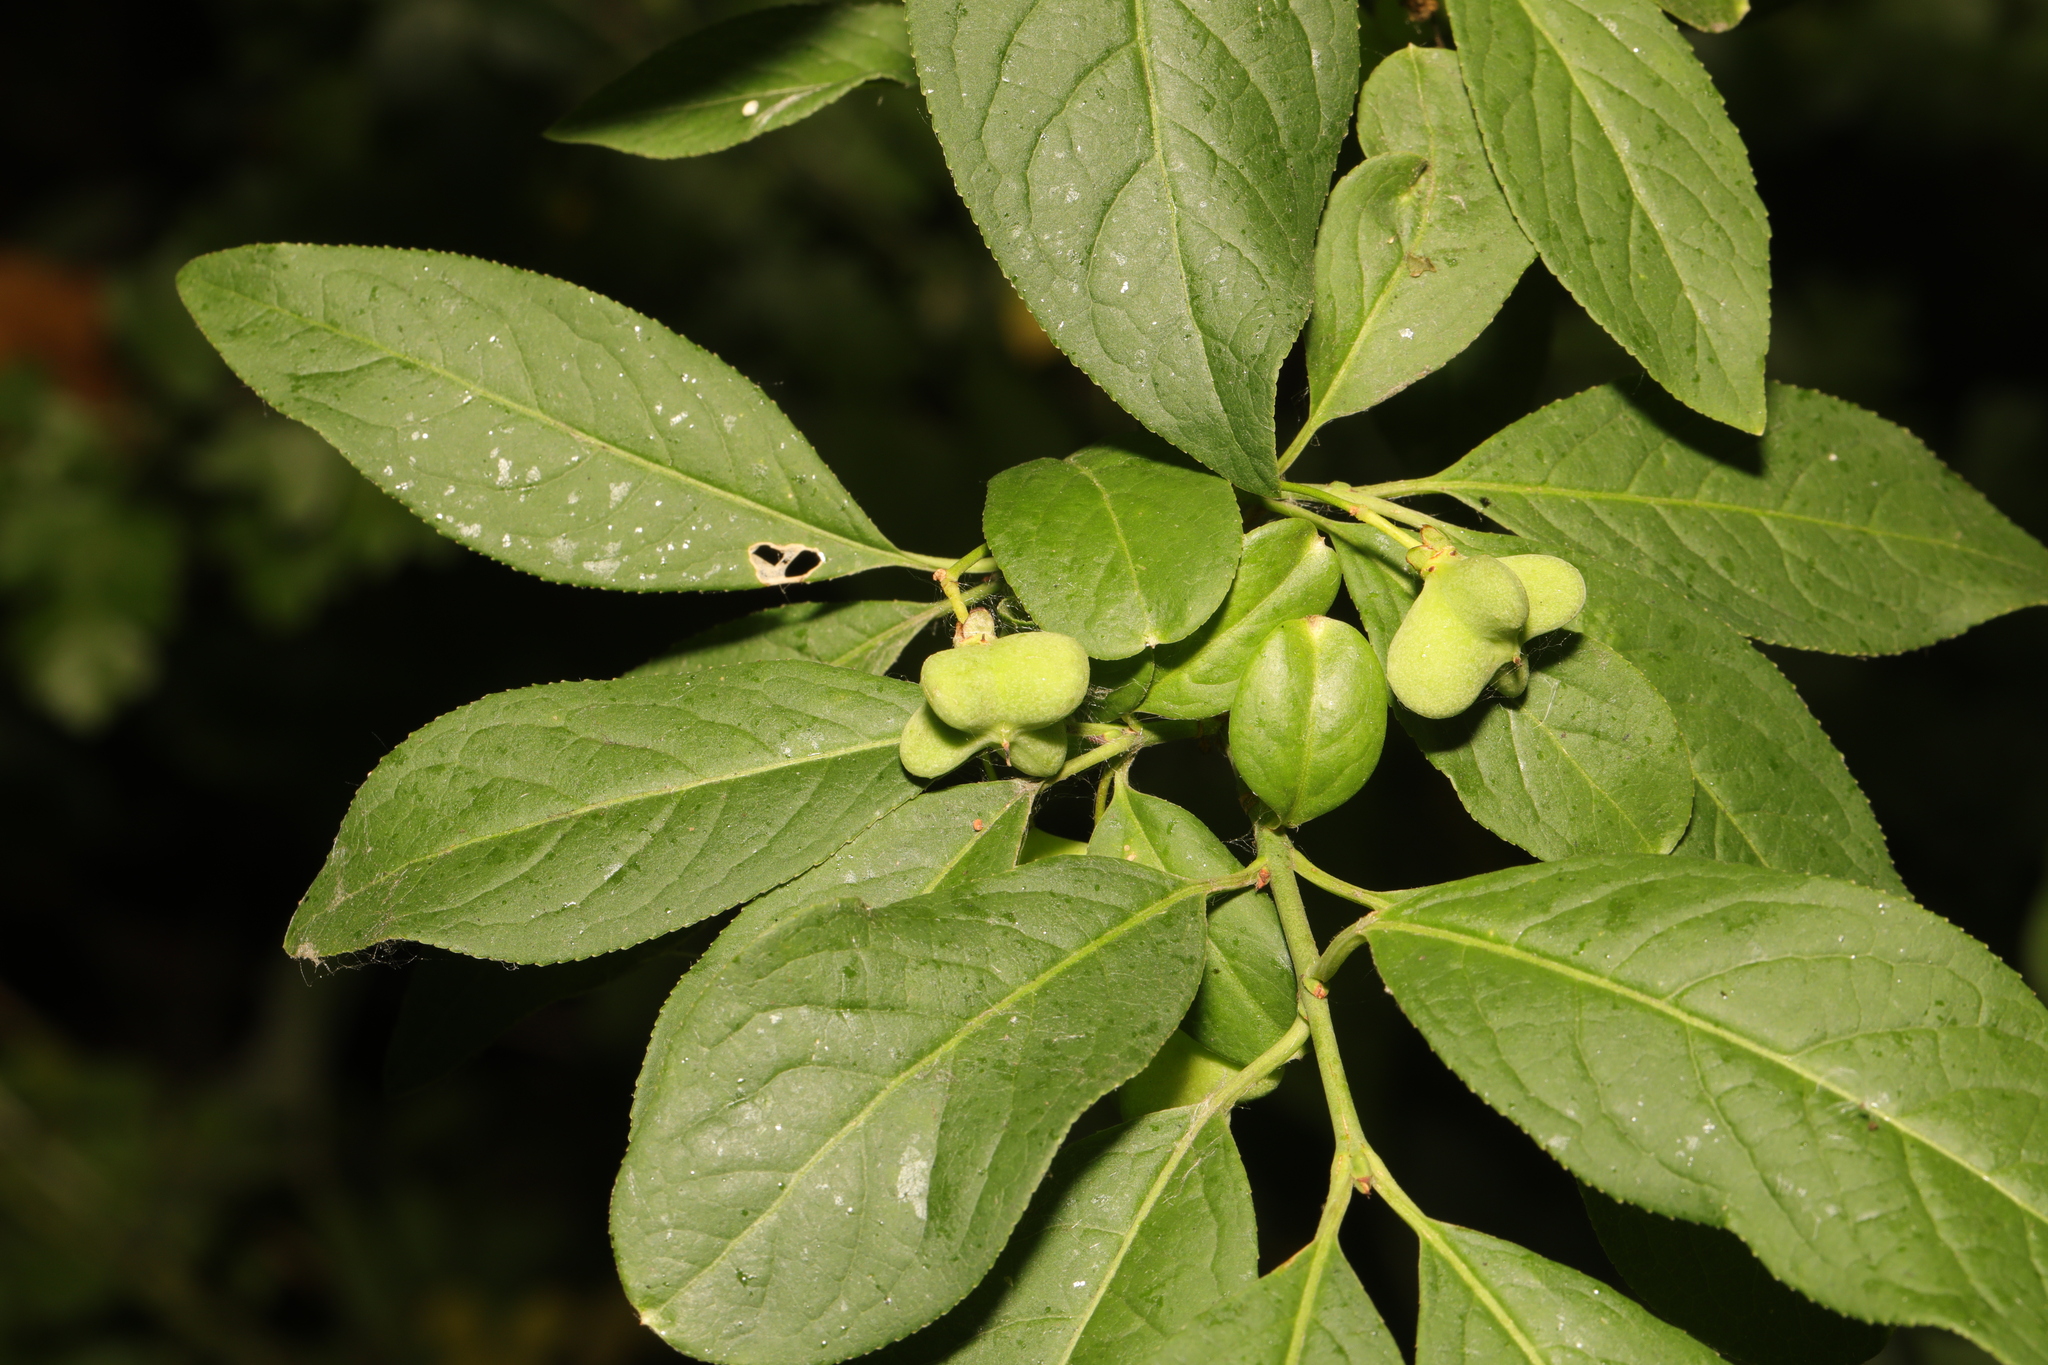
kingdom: Plantae
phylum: Tracheophyta
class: Magnoliopsida
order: Celastrales
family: Celastraceae
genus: Euonymus
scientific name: Euonymus europaeus
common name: Spindle
